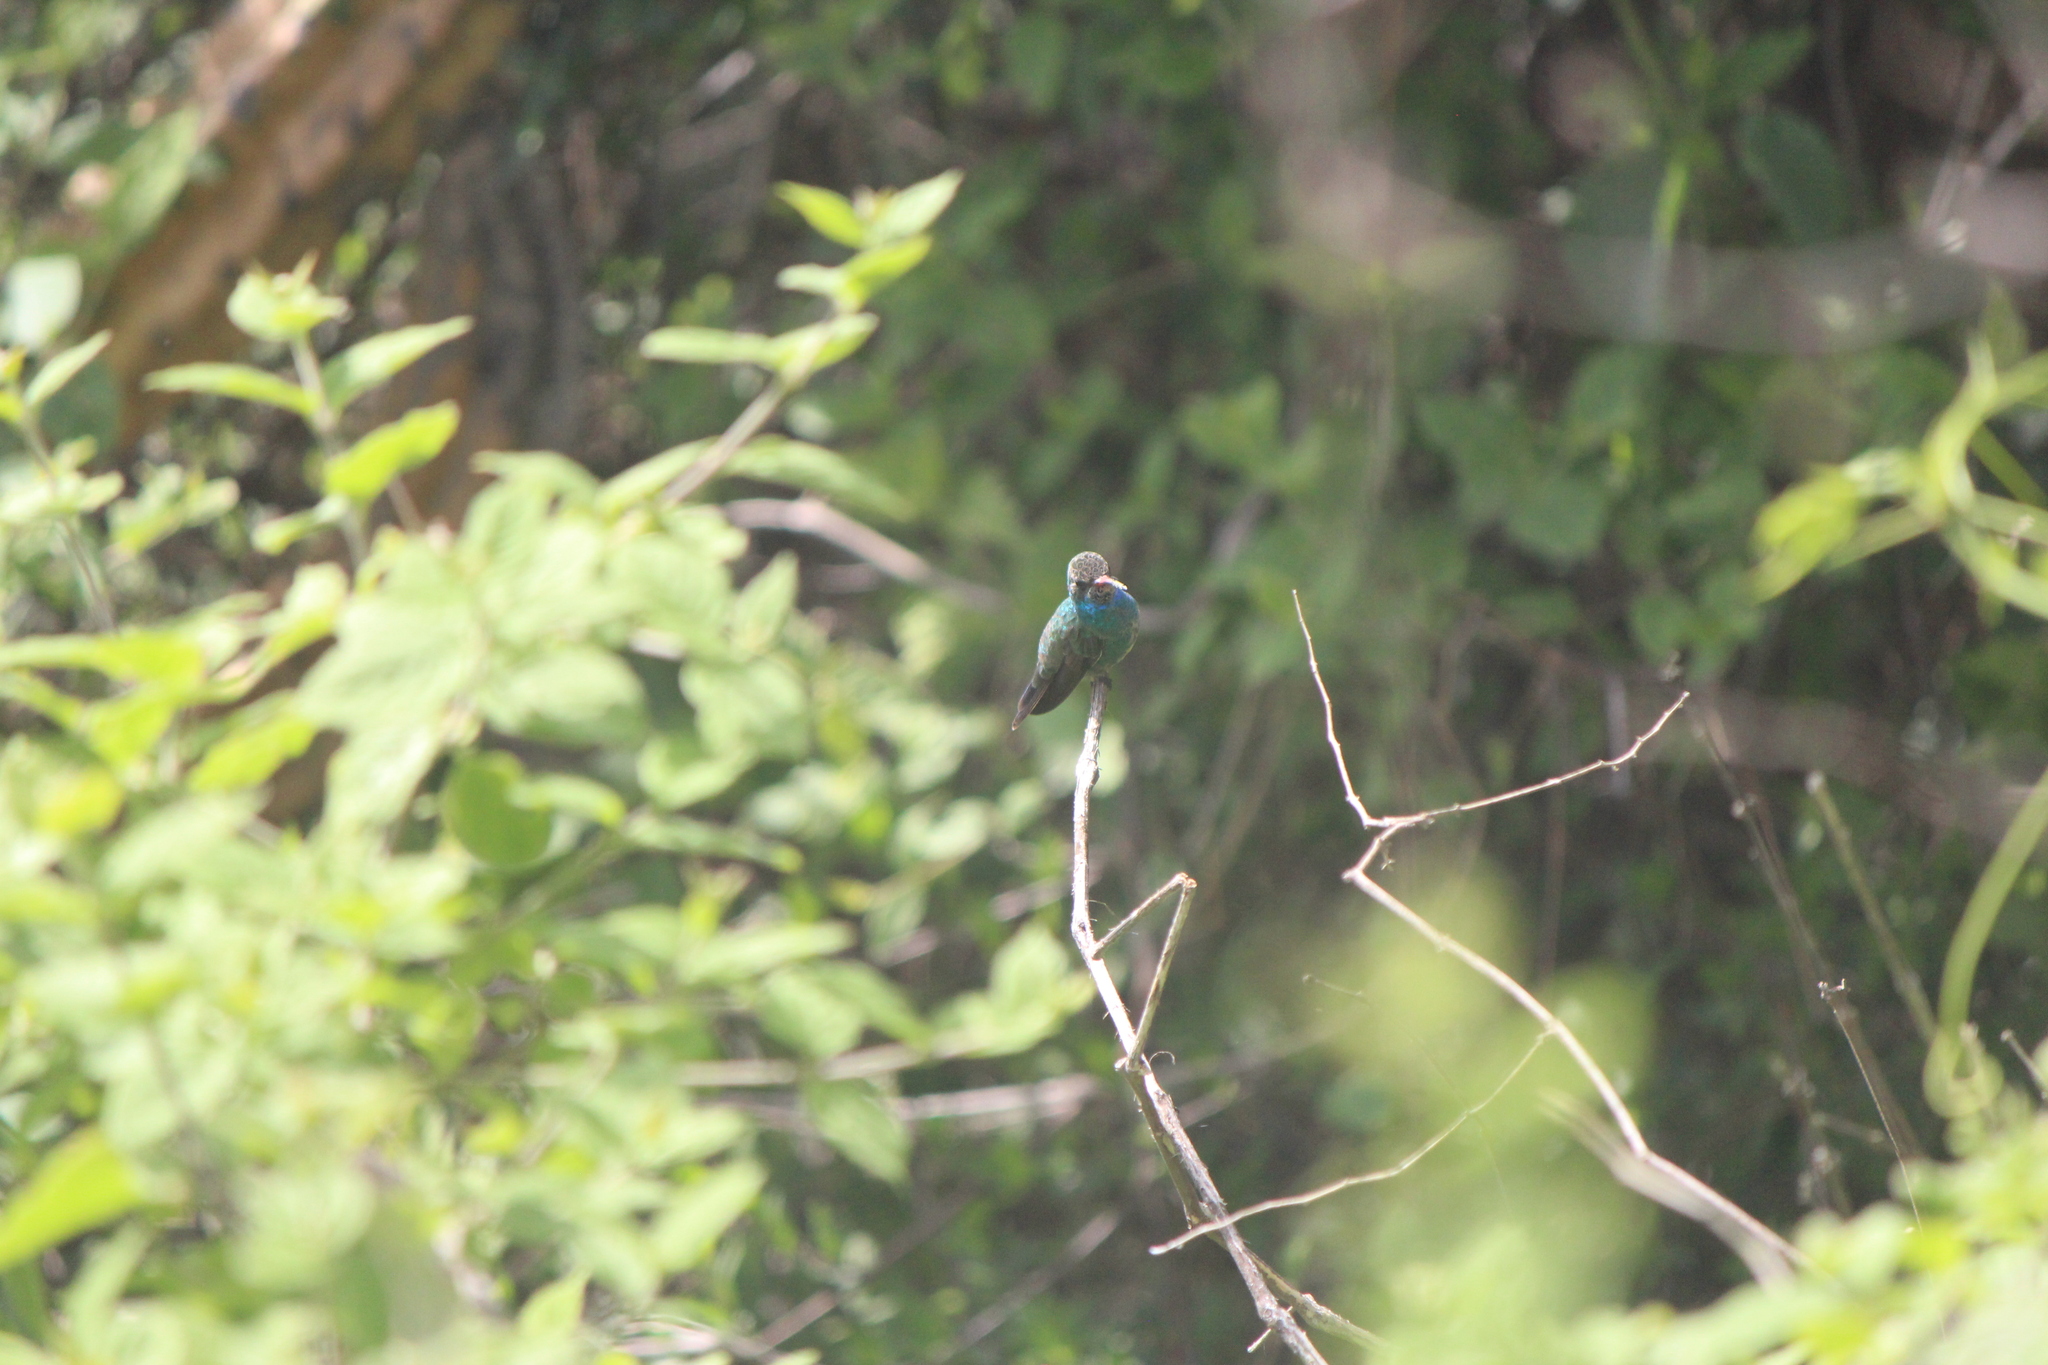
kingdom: Animalia
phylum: Chordata
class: Aves
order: Apodiformes
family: Trochilidae
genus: Cynanthus
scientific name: Cynanthus latirostris
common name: Broad-billed hummingbird
